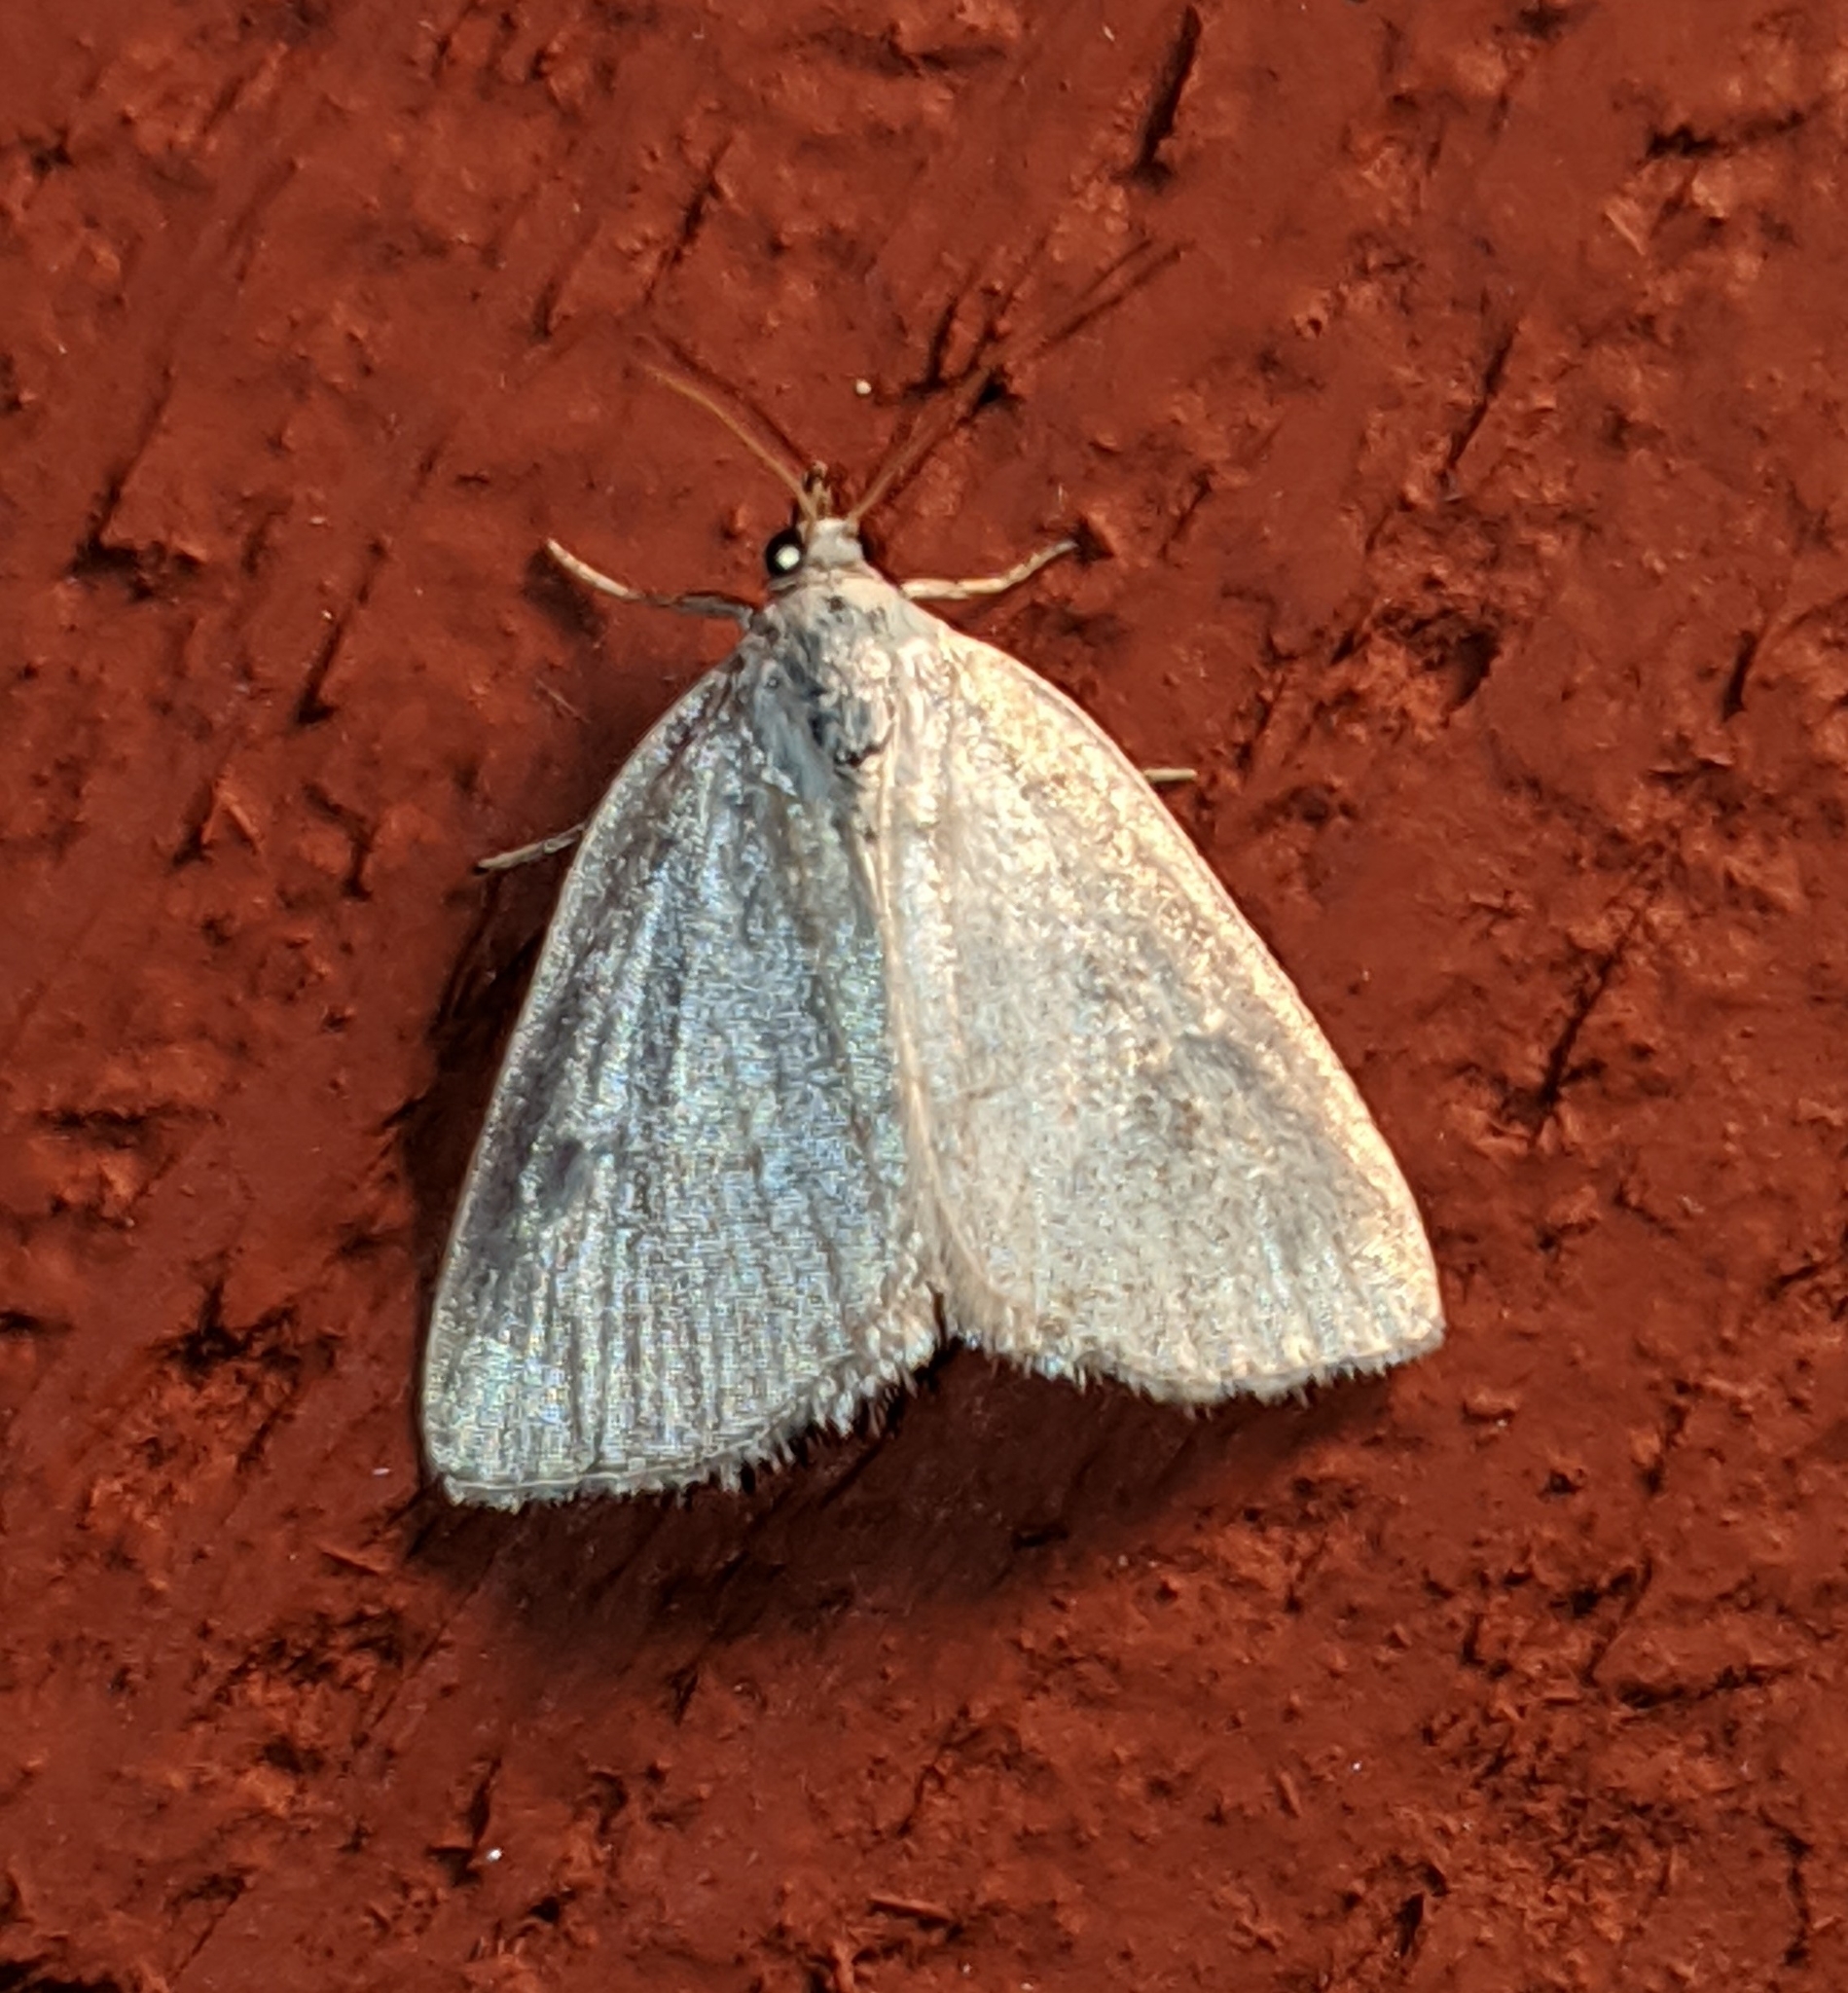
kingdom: Animalia
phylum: Arthropoda
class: Insecta
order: Lepidoptera
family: Noctuidae
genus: Protodeltote
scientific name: Protodeltote albidula
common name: Pale glyph
